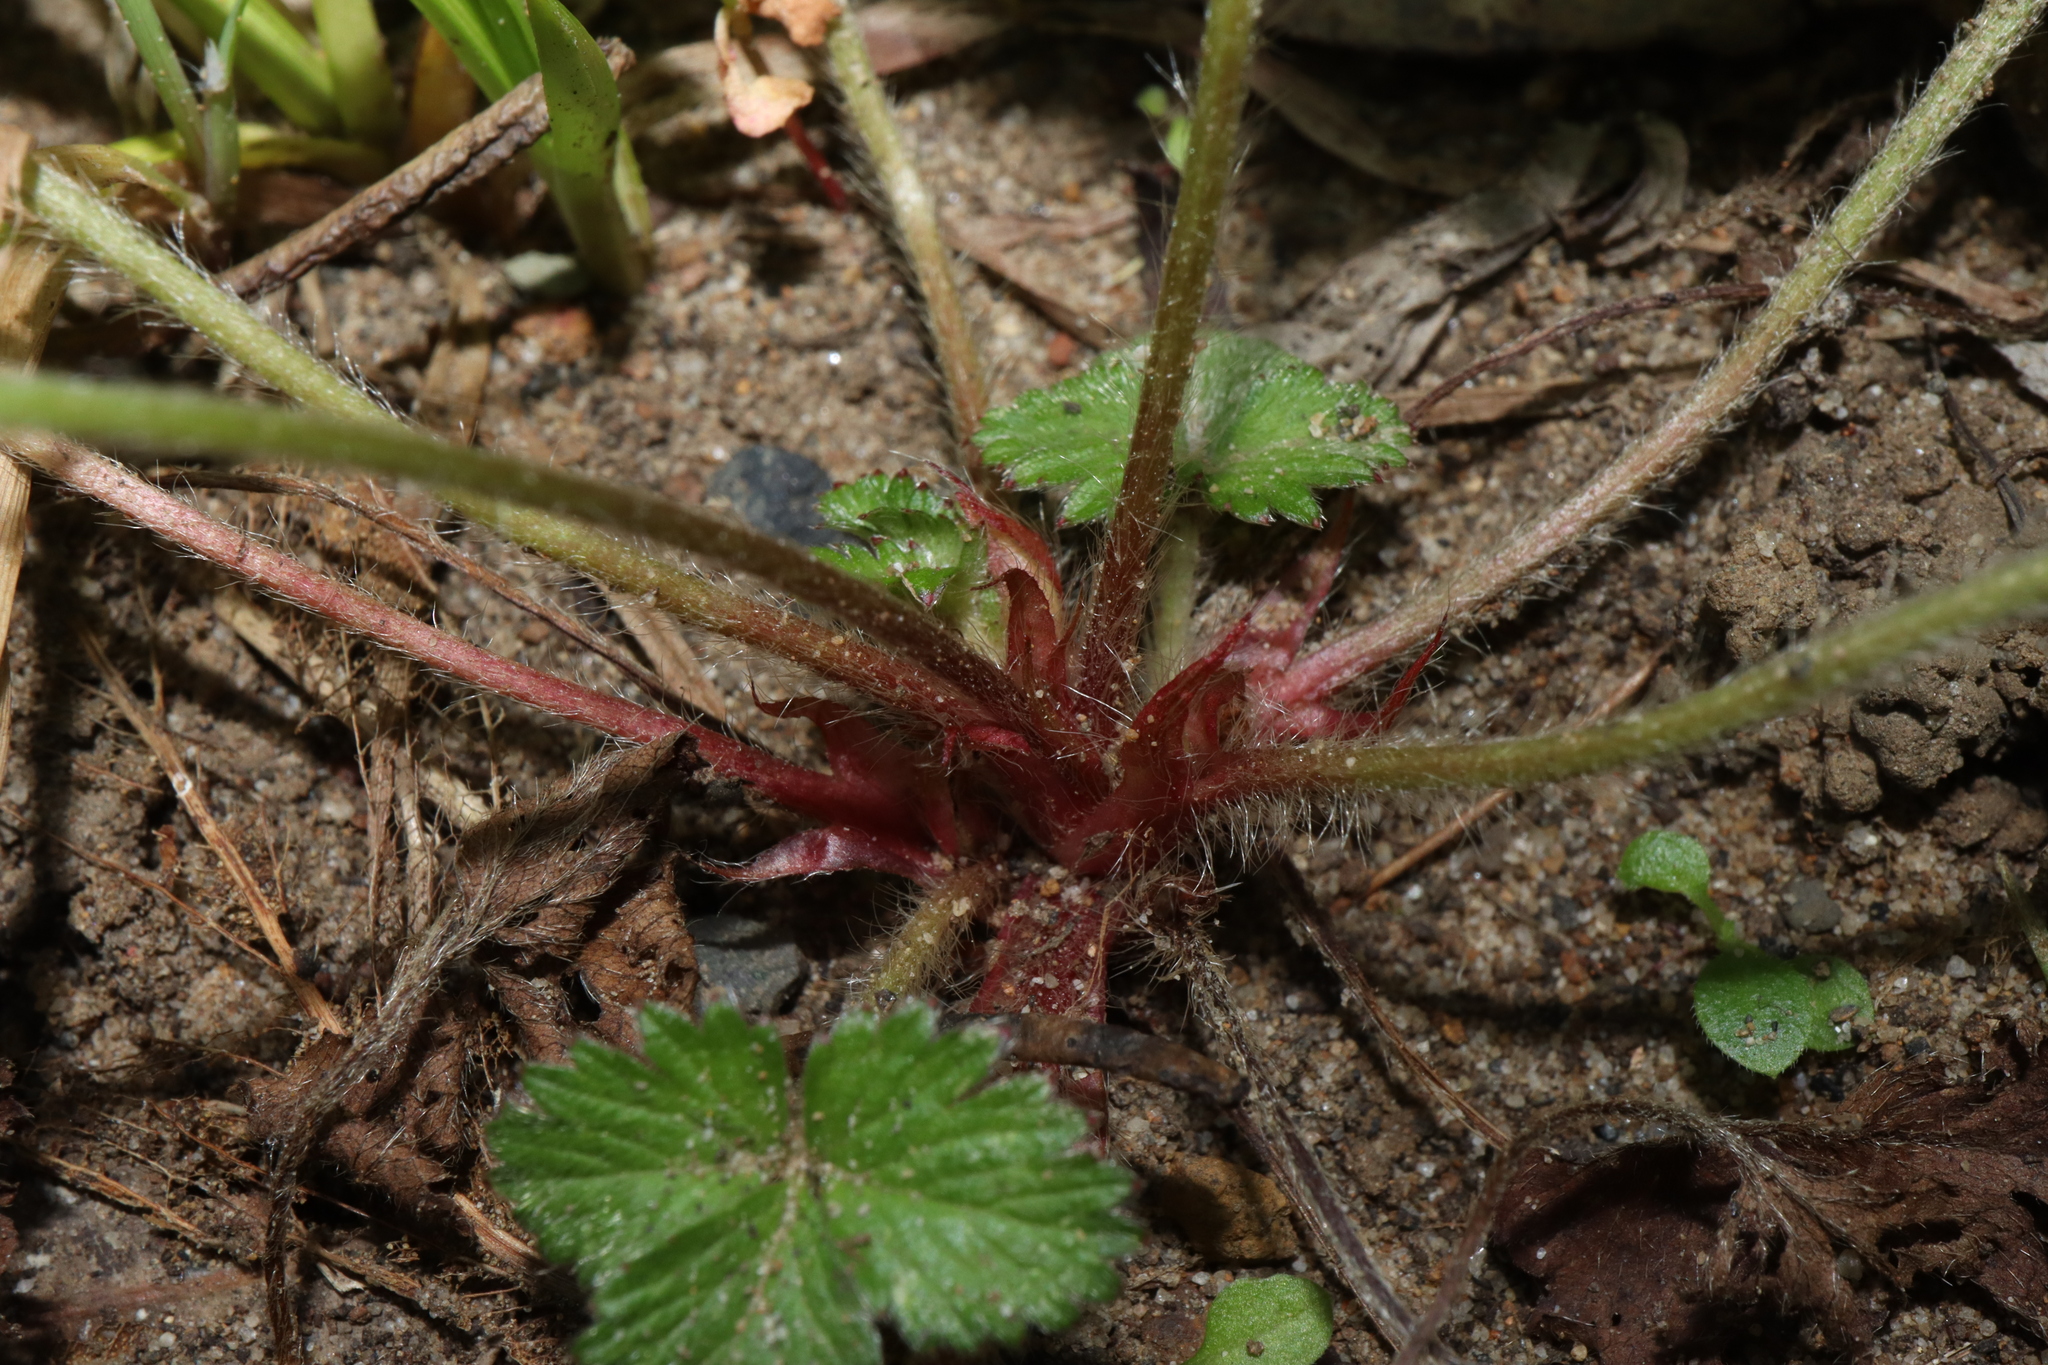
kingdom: Plantae
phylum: Tracheophyta
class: Magnoliopsida
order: Rosales
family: Rosaceae
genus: Potentilla
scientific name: Potentilla indica
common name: Yellow-flowered strawberry
